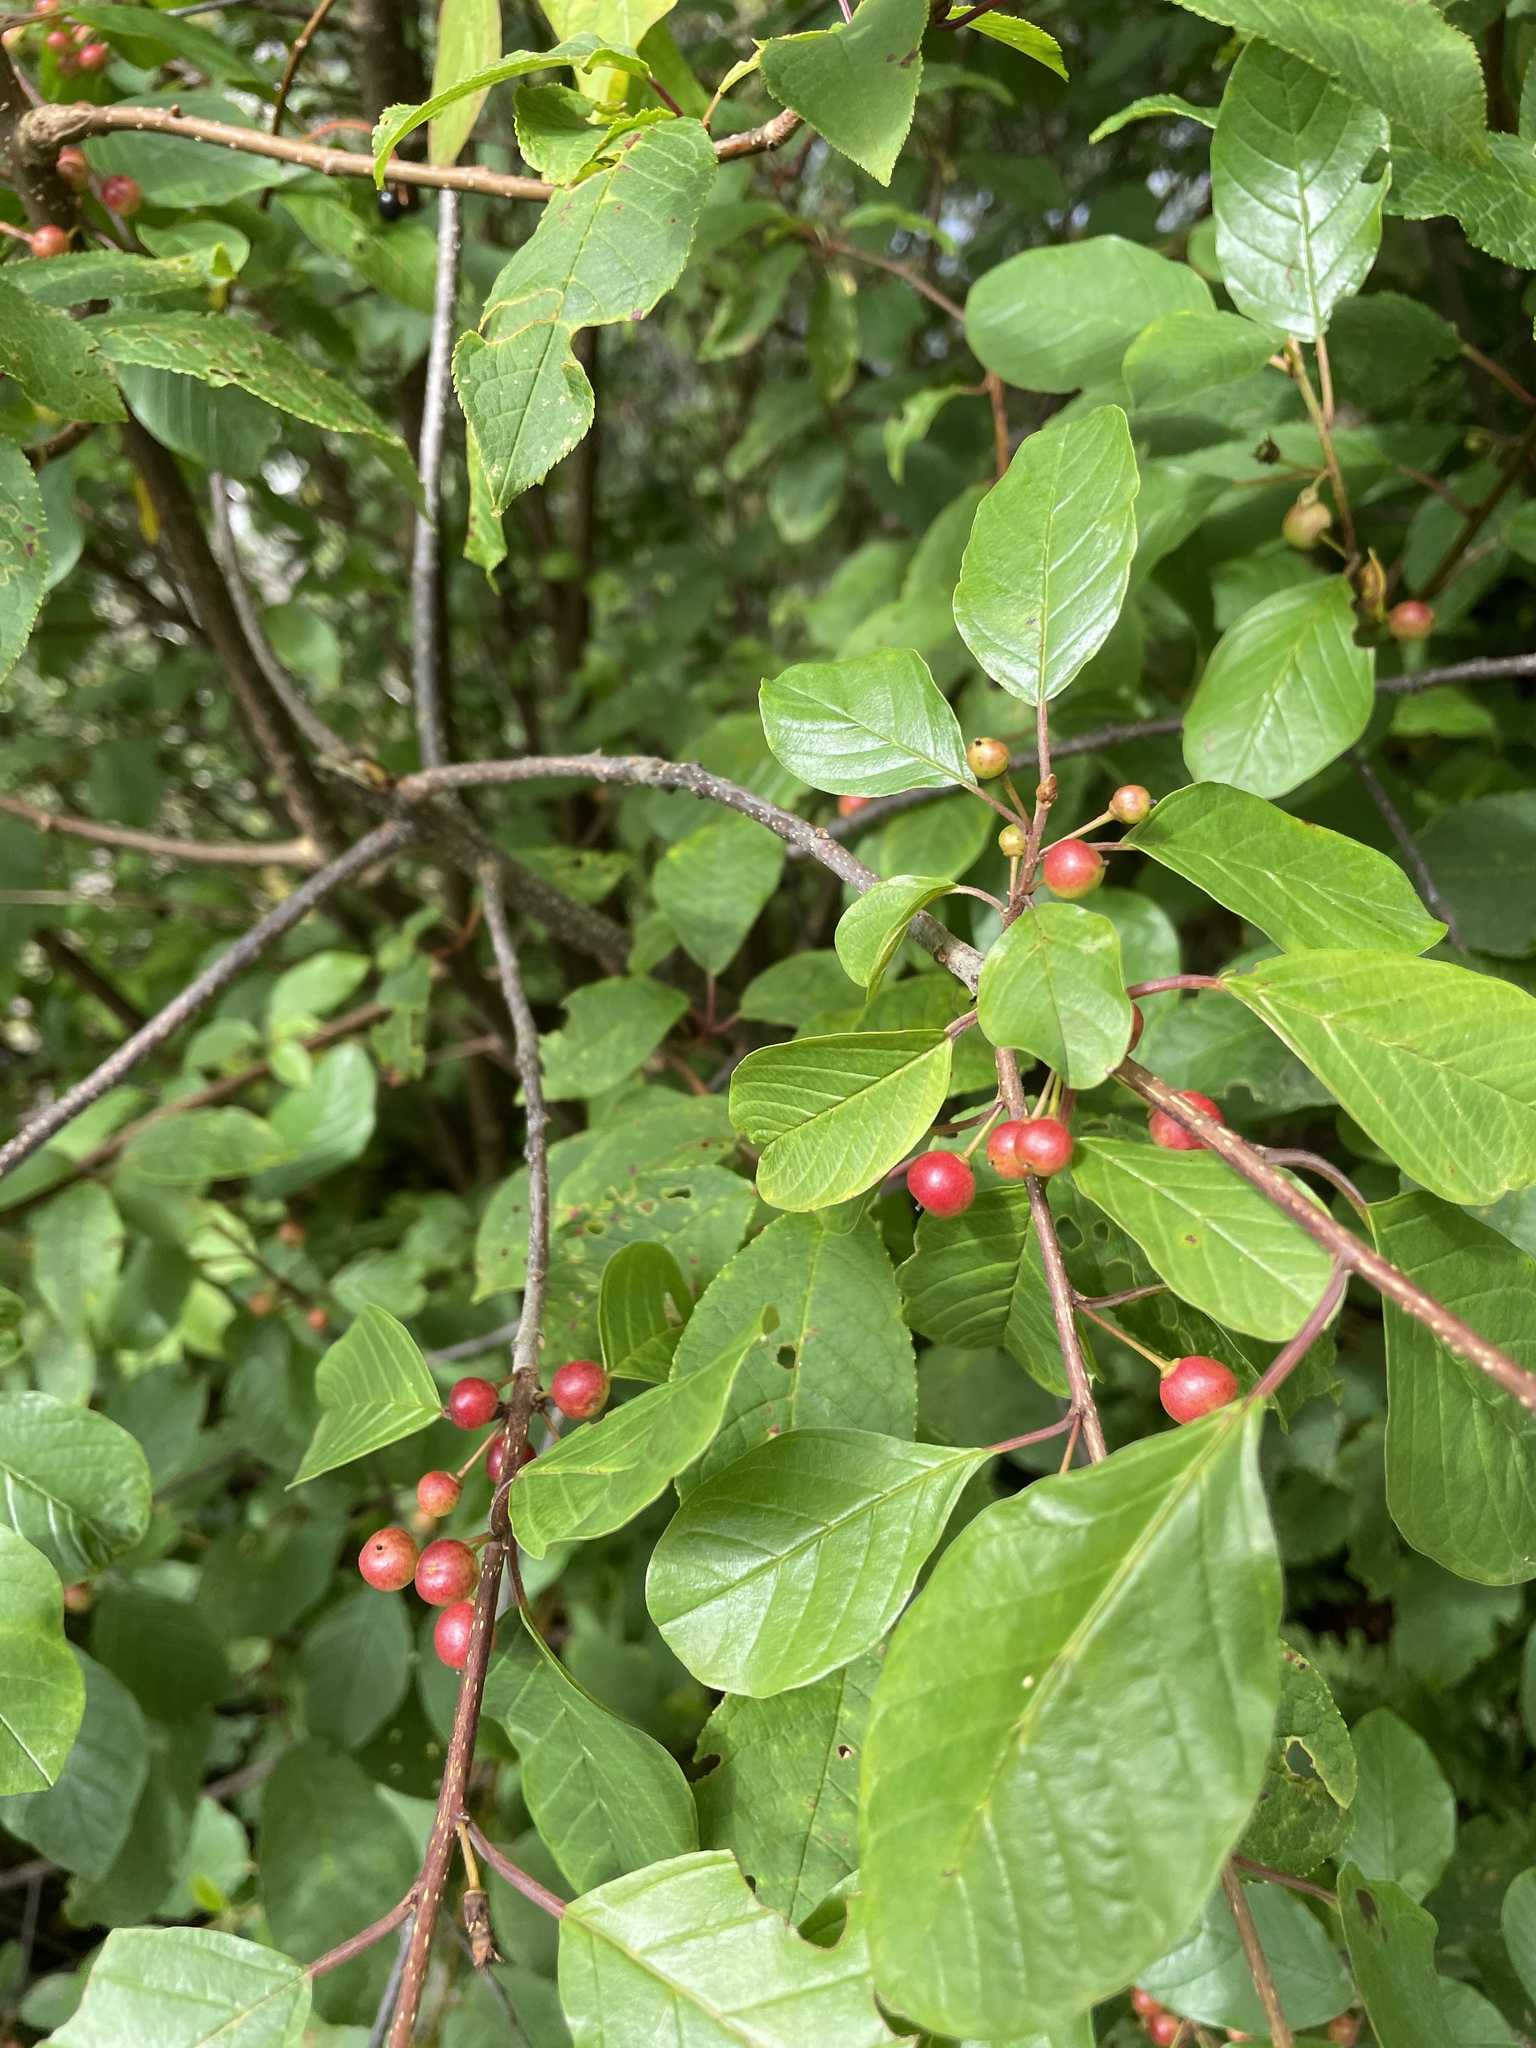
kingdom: Plantae
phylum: Tracheophyta
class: Magnoliopsida
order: Rosales
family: Rhamnaceae
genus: Frangula
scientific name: Frangula alnus
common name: Alder buckthorn
